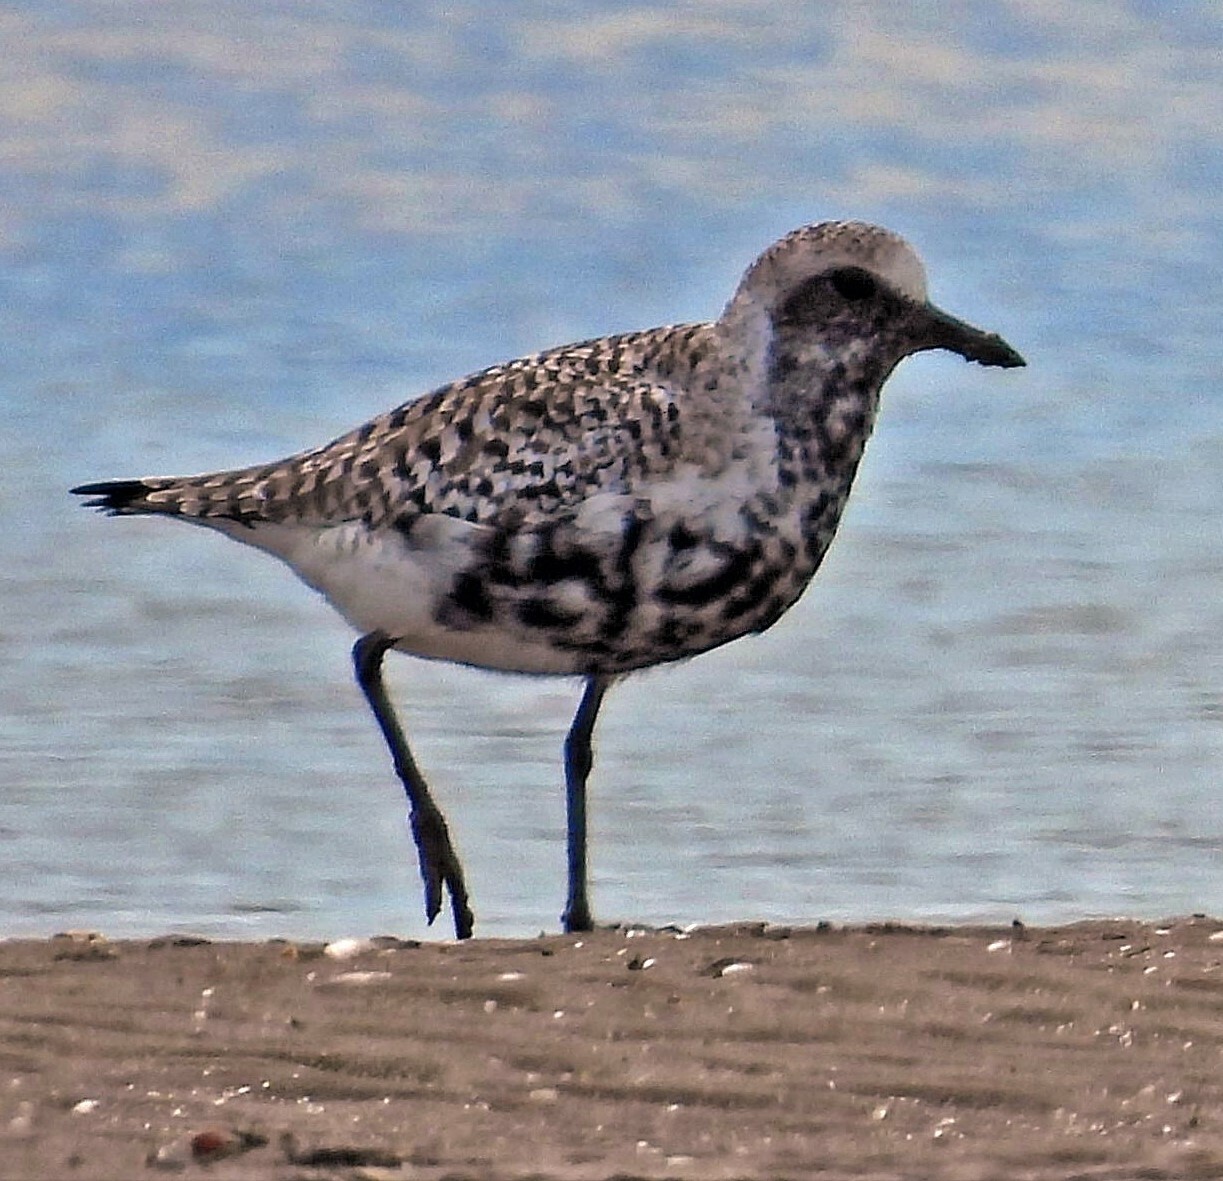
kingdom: Animalia
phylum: Chordata
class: Aves
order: Charadriiformes
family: Charadriidae
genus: Pluvialis
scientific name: Pluvialis squatarola
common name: Grey plover
